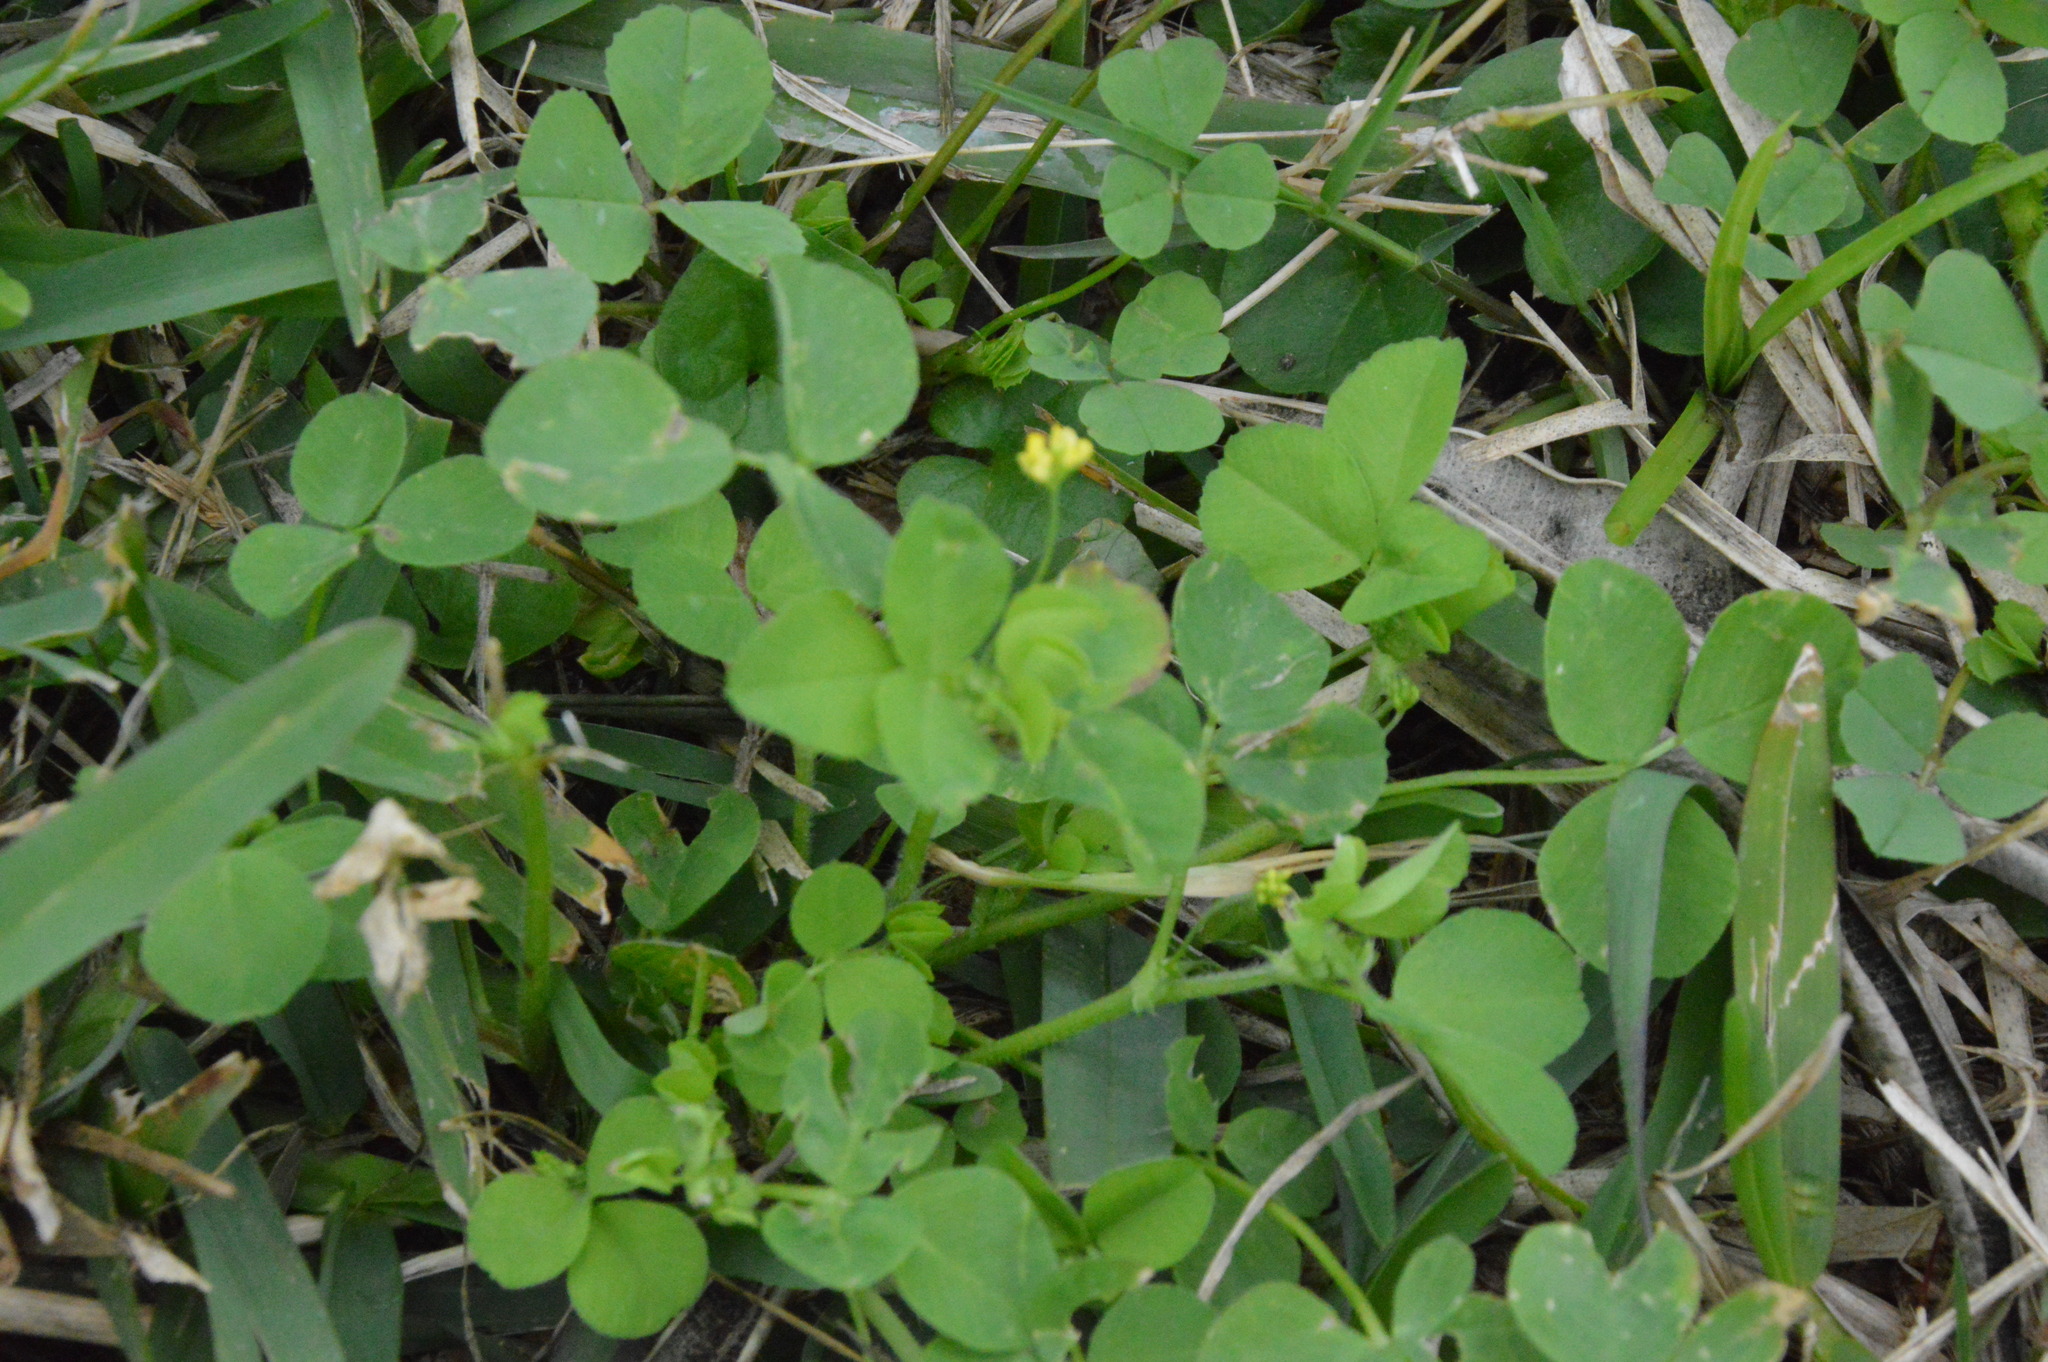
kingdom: Plantae
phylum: Tracheophyta
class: Magnoliopsida
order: Fabales
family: Fabaceae
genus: Medicago
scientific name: Medicago polymorpha
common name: Burclover
